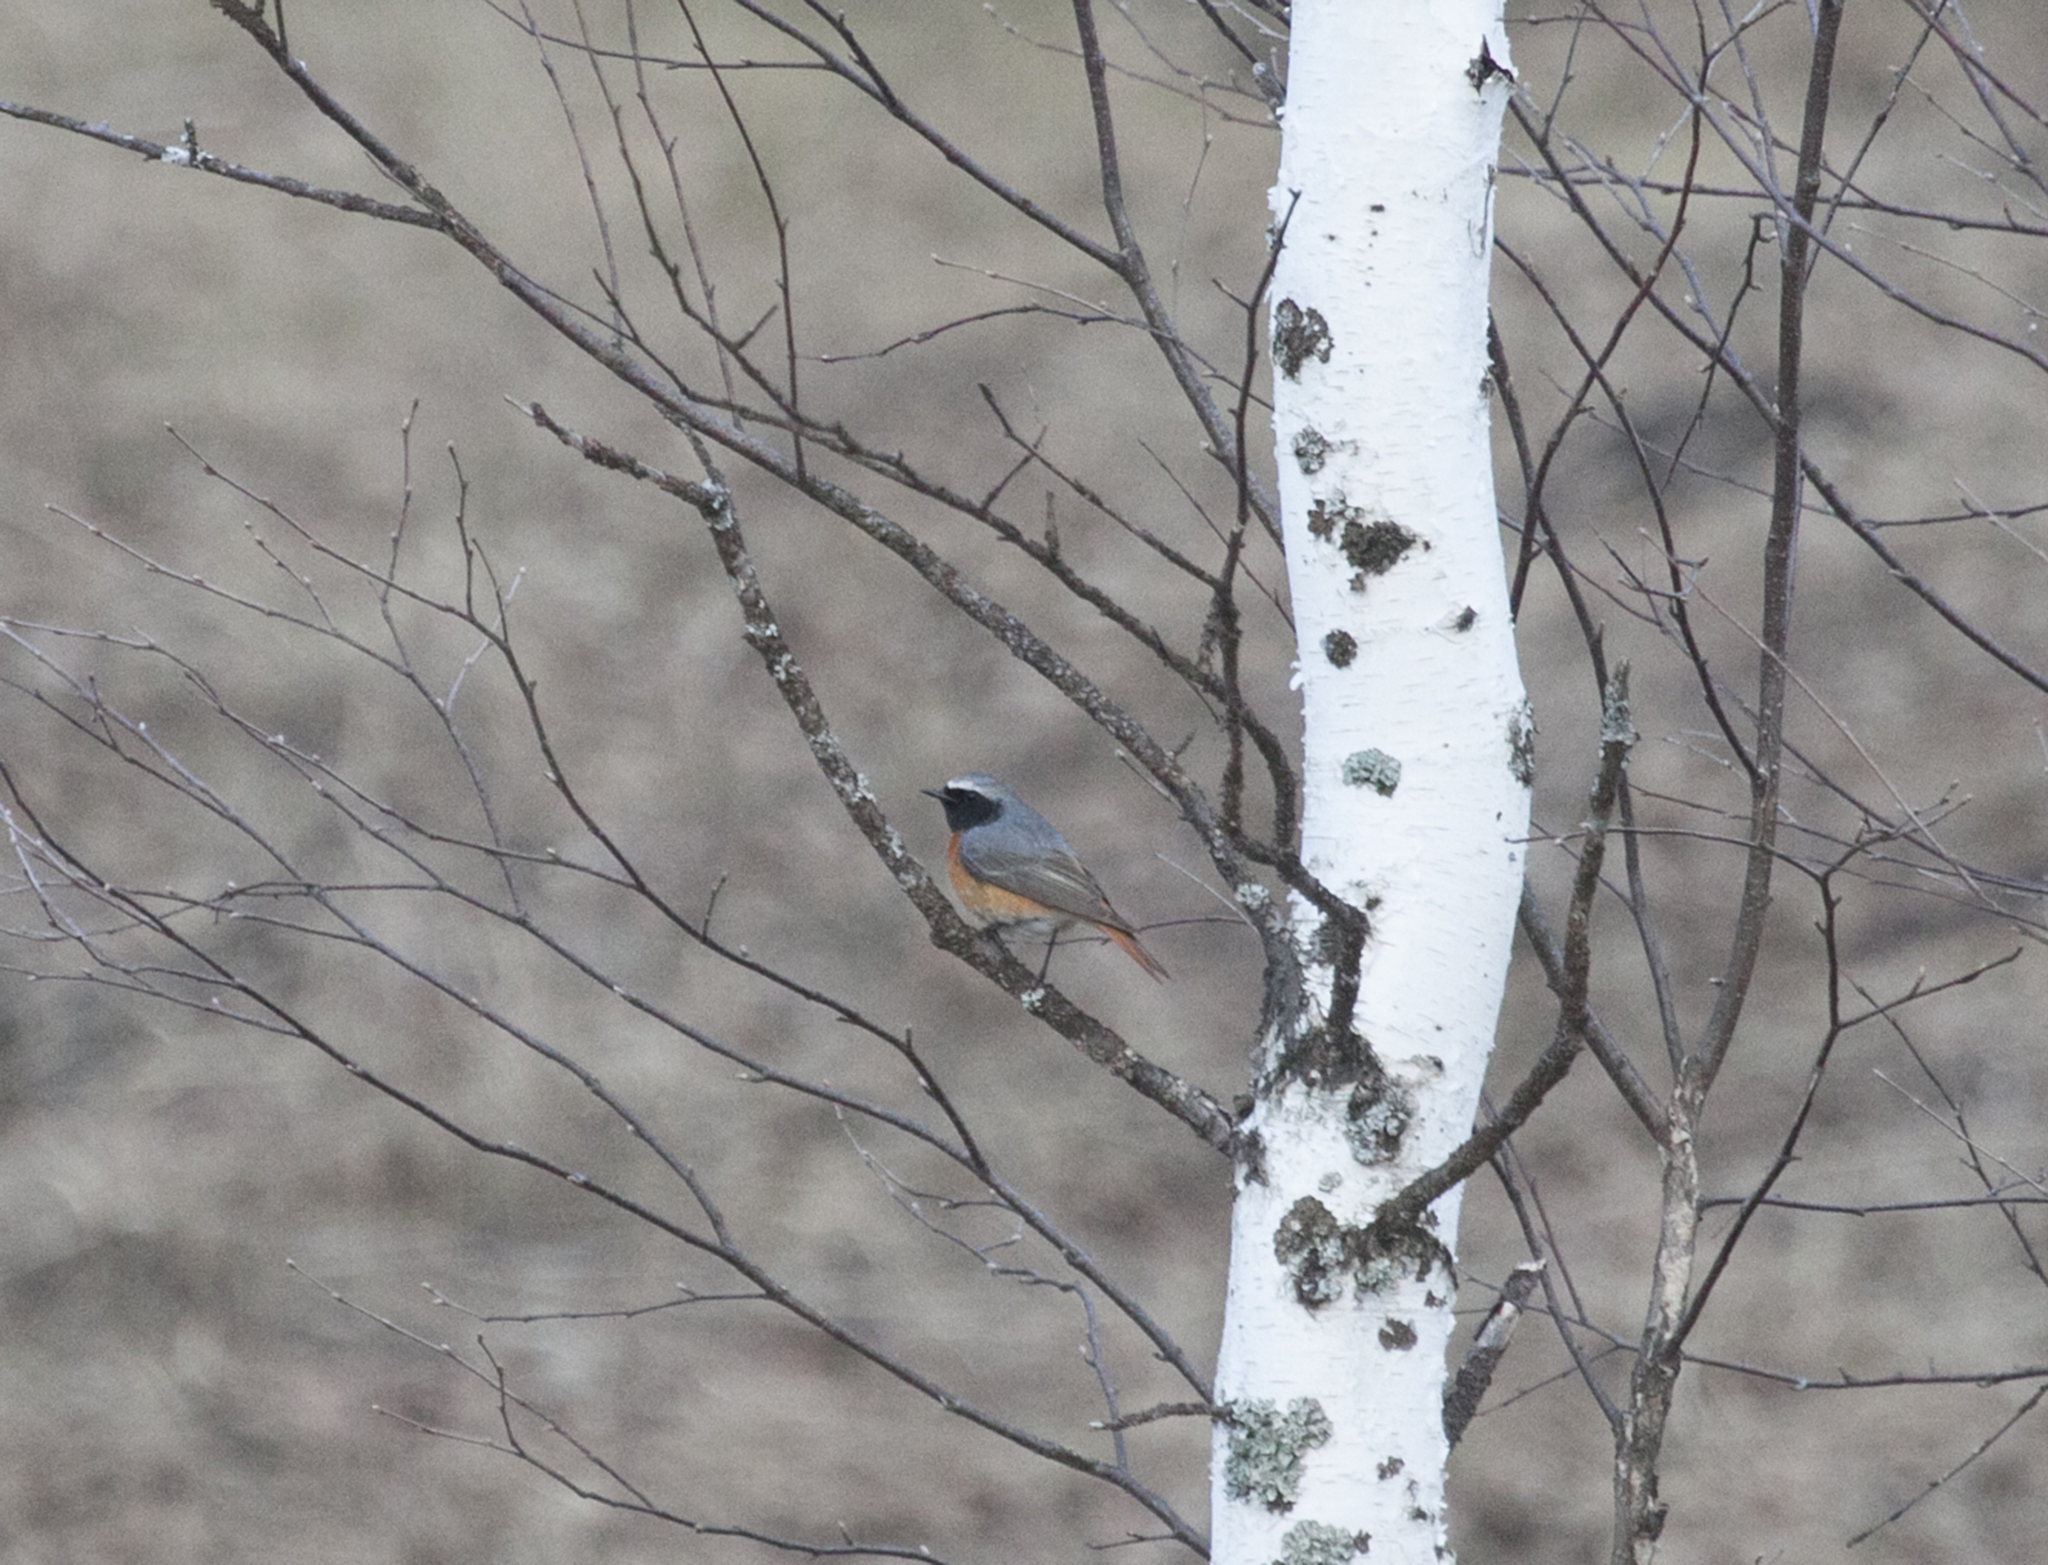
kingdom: Animalia
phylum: Chordata
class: Aves
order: Passeriformes
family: Muscicapidae
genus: Phoenicurus
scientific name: Phoenicurus phoenicurus
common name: Common redstart
